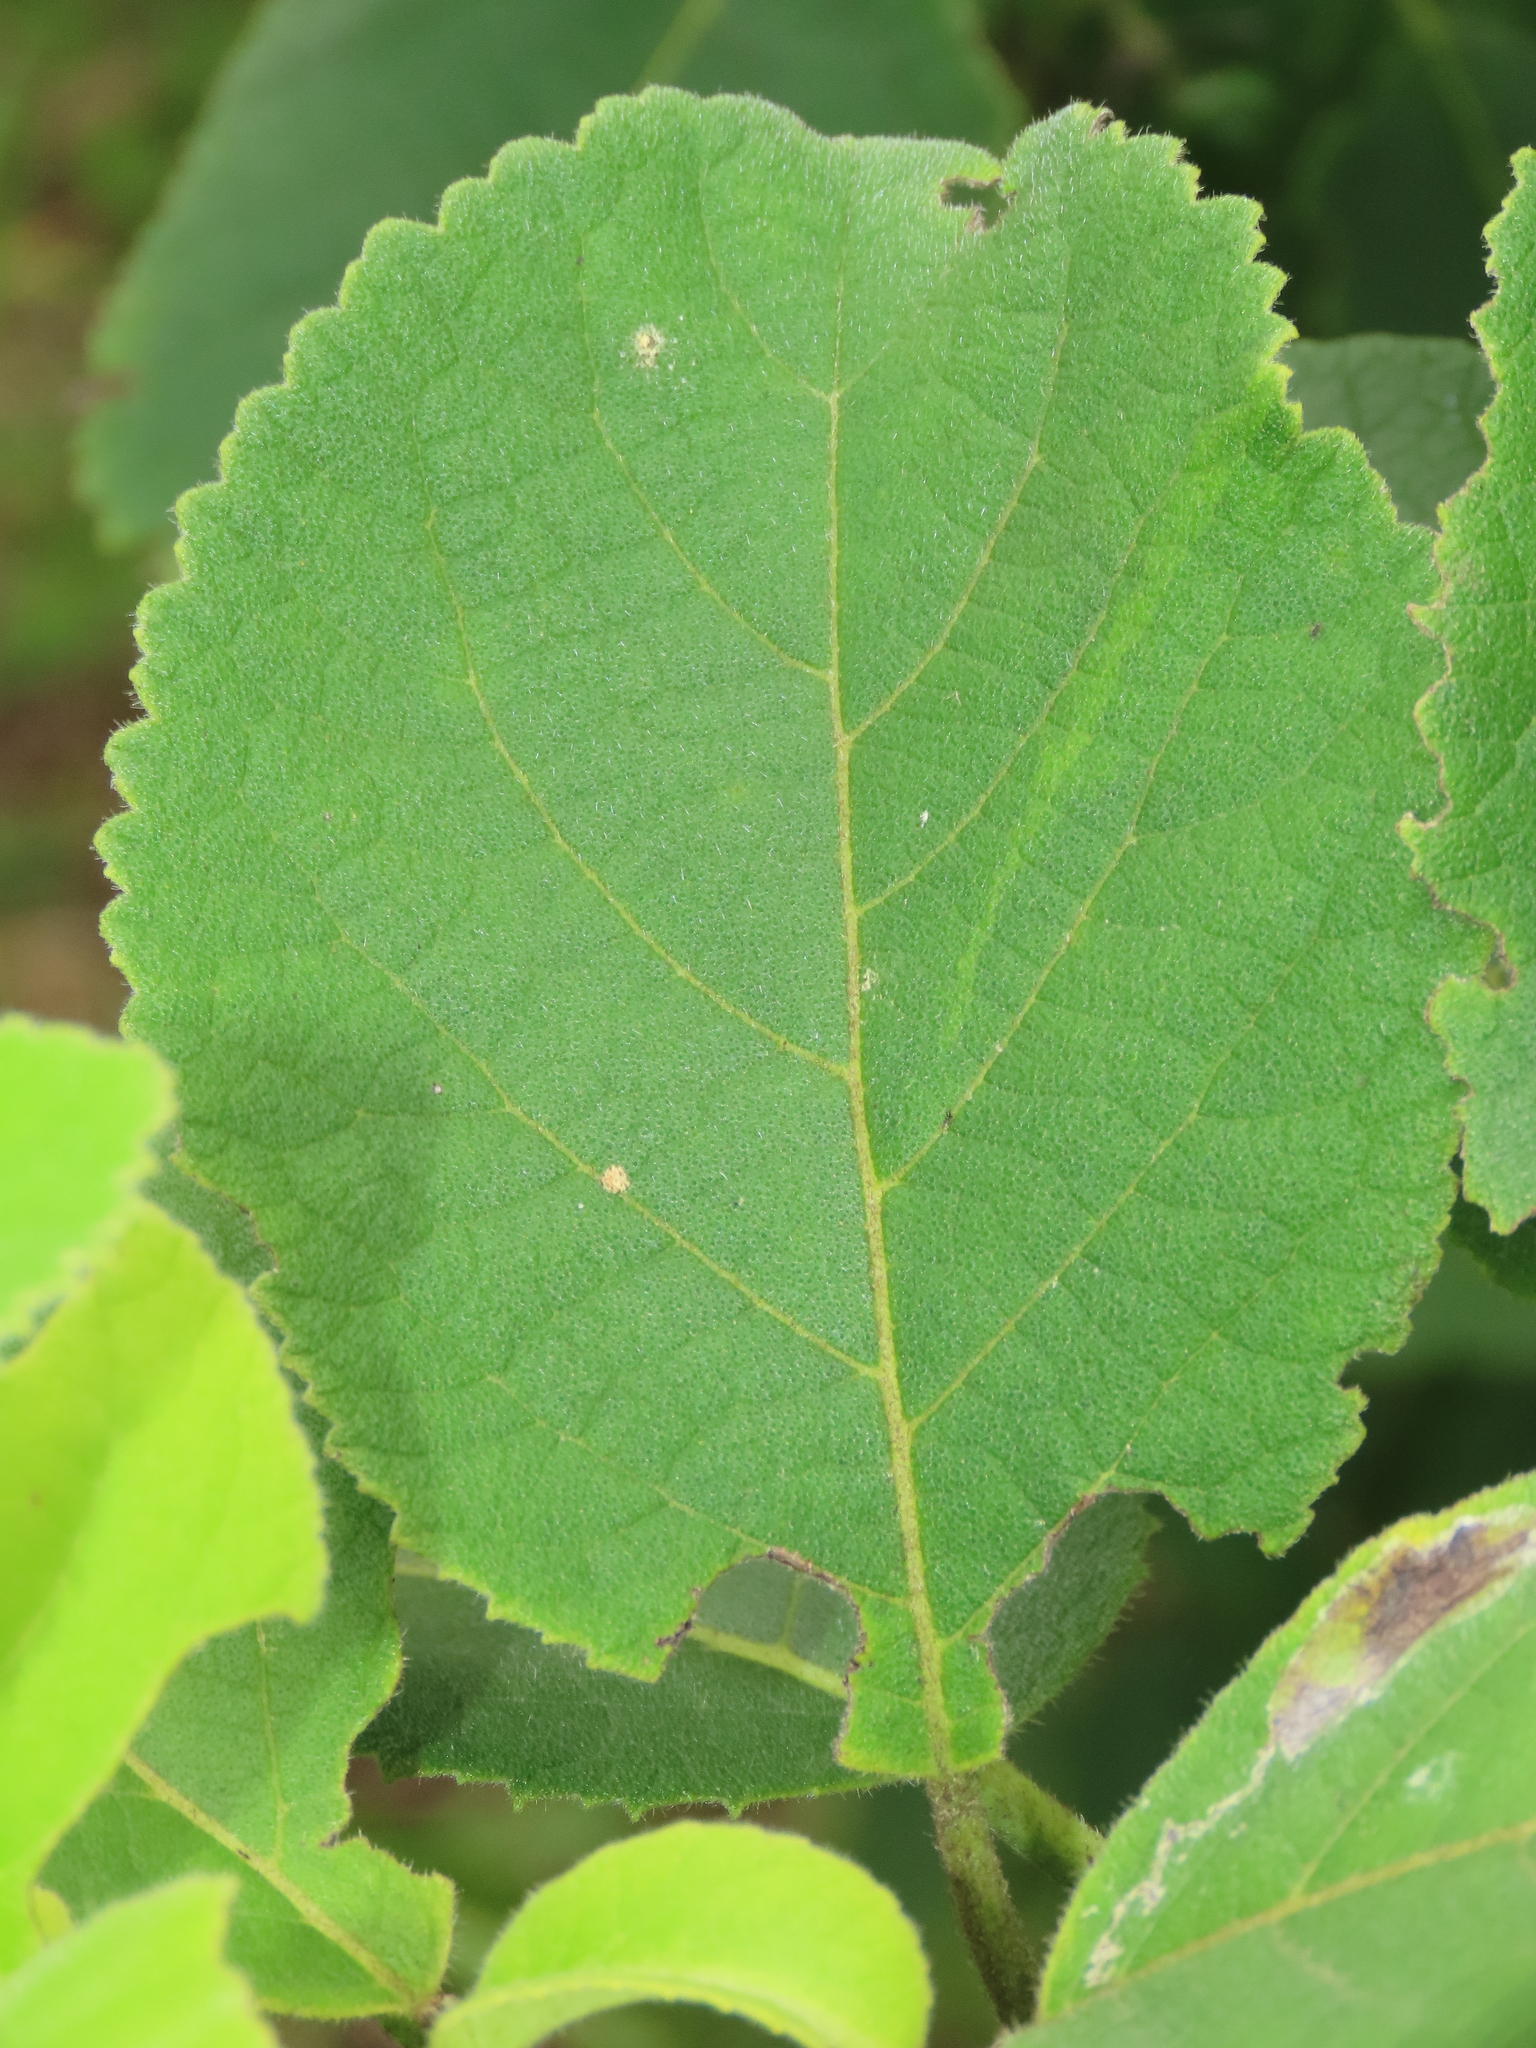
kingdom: Plantae
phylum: Tracheophyta
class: Magnoliopsida
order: Boraginales
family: Ehretiaceae
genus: Ehretia
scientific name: Ehretia dicksonii
